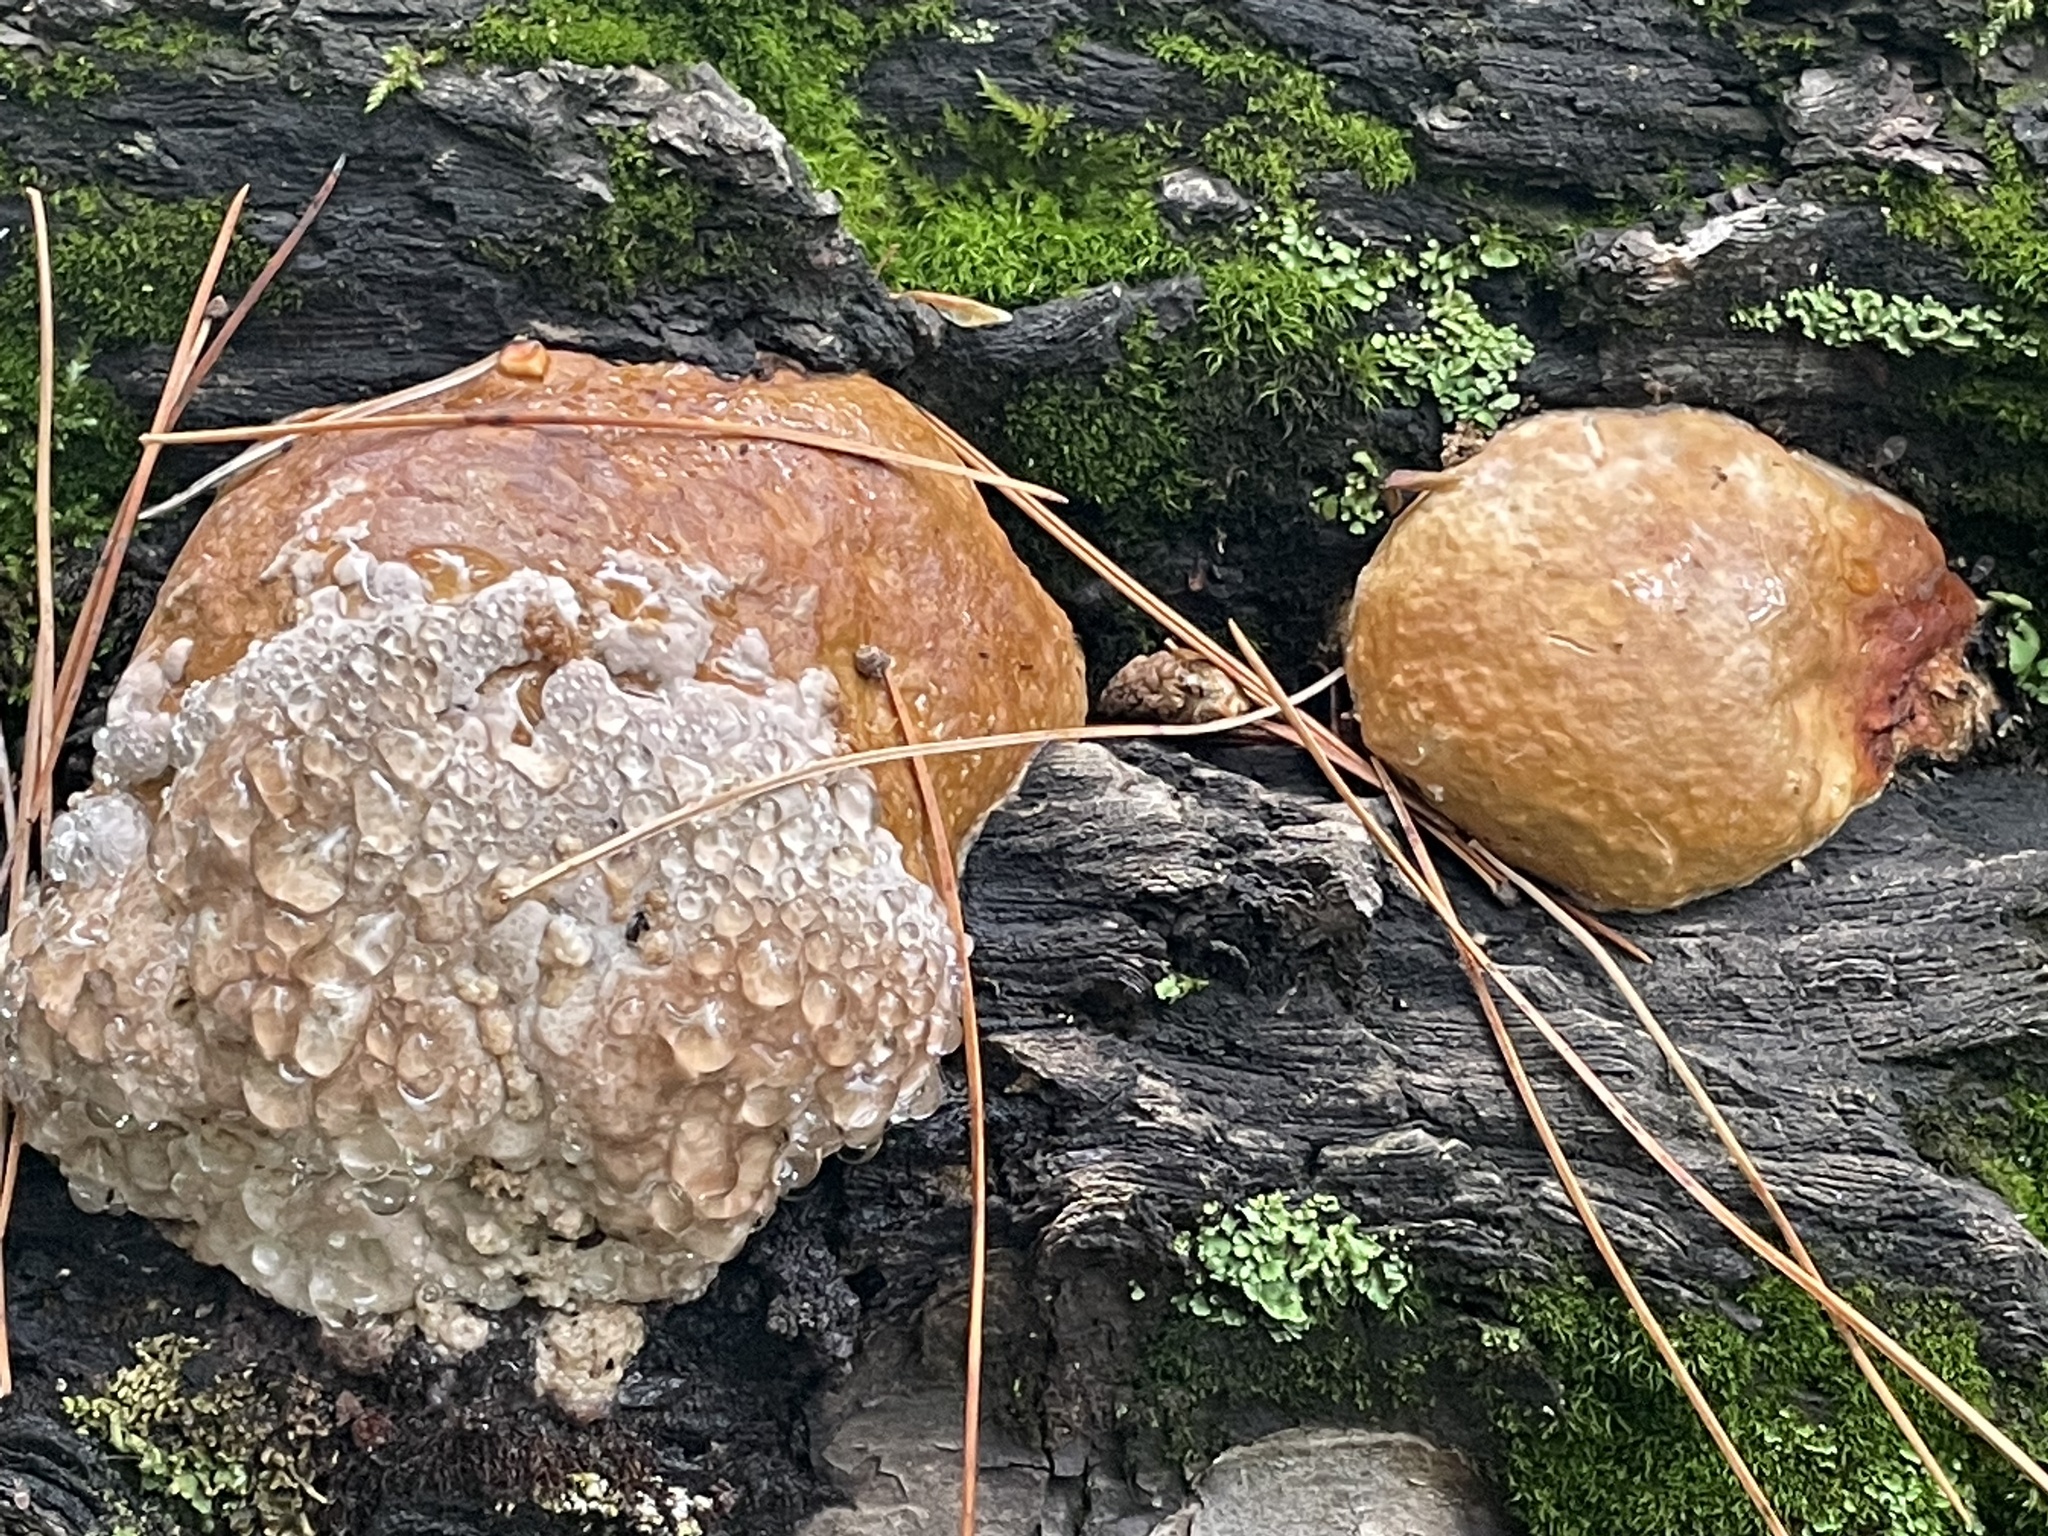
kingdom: Fungi
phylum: Basidiomycota
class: Agaricomycetes
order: Polyporales
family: Fomitopsidaceae
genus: Fomitopsis
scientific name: Fomitopsis schrenkii
